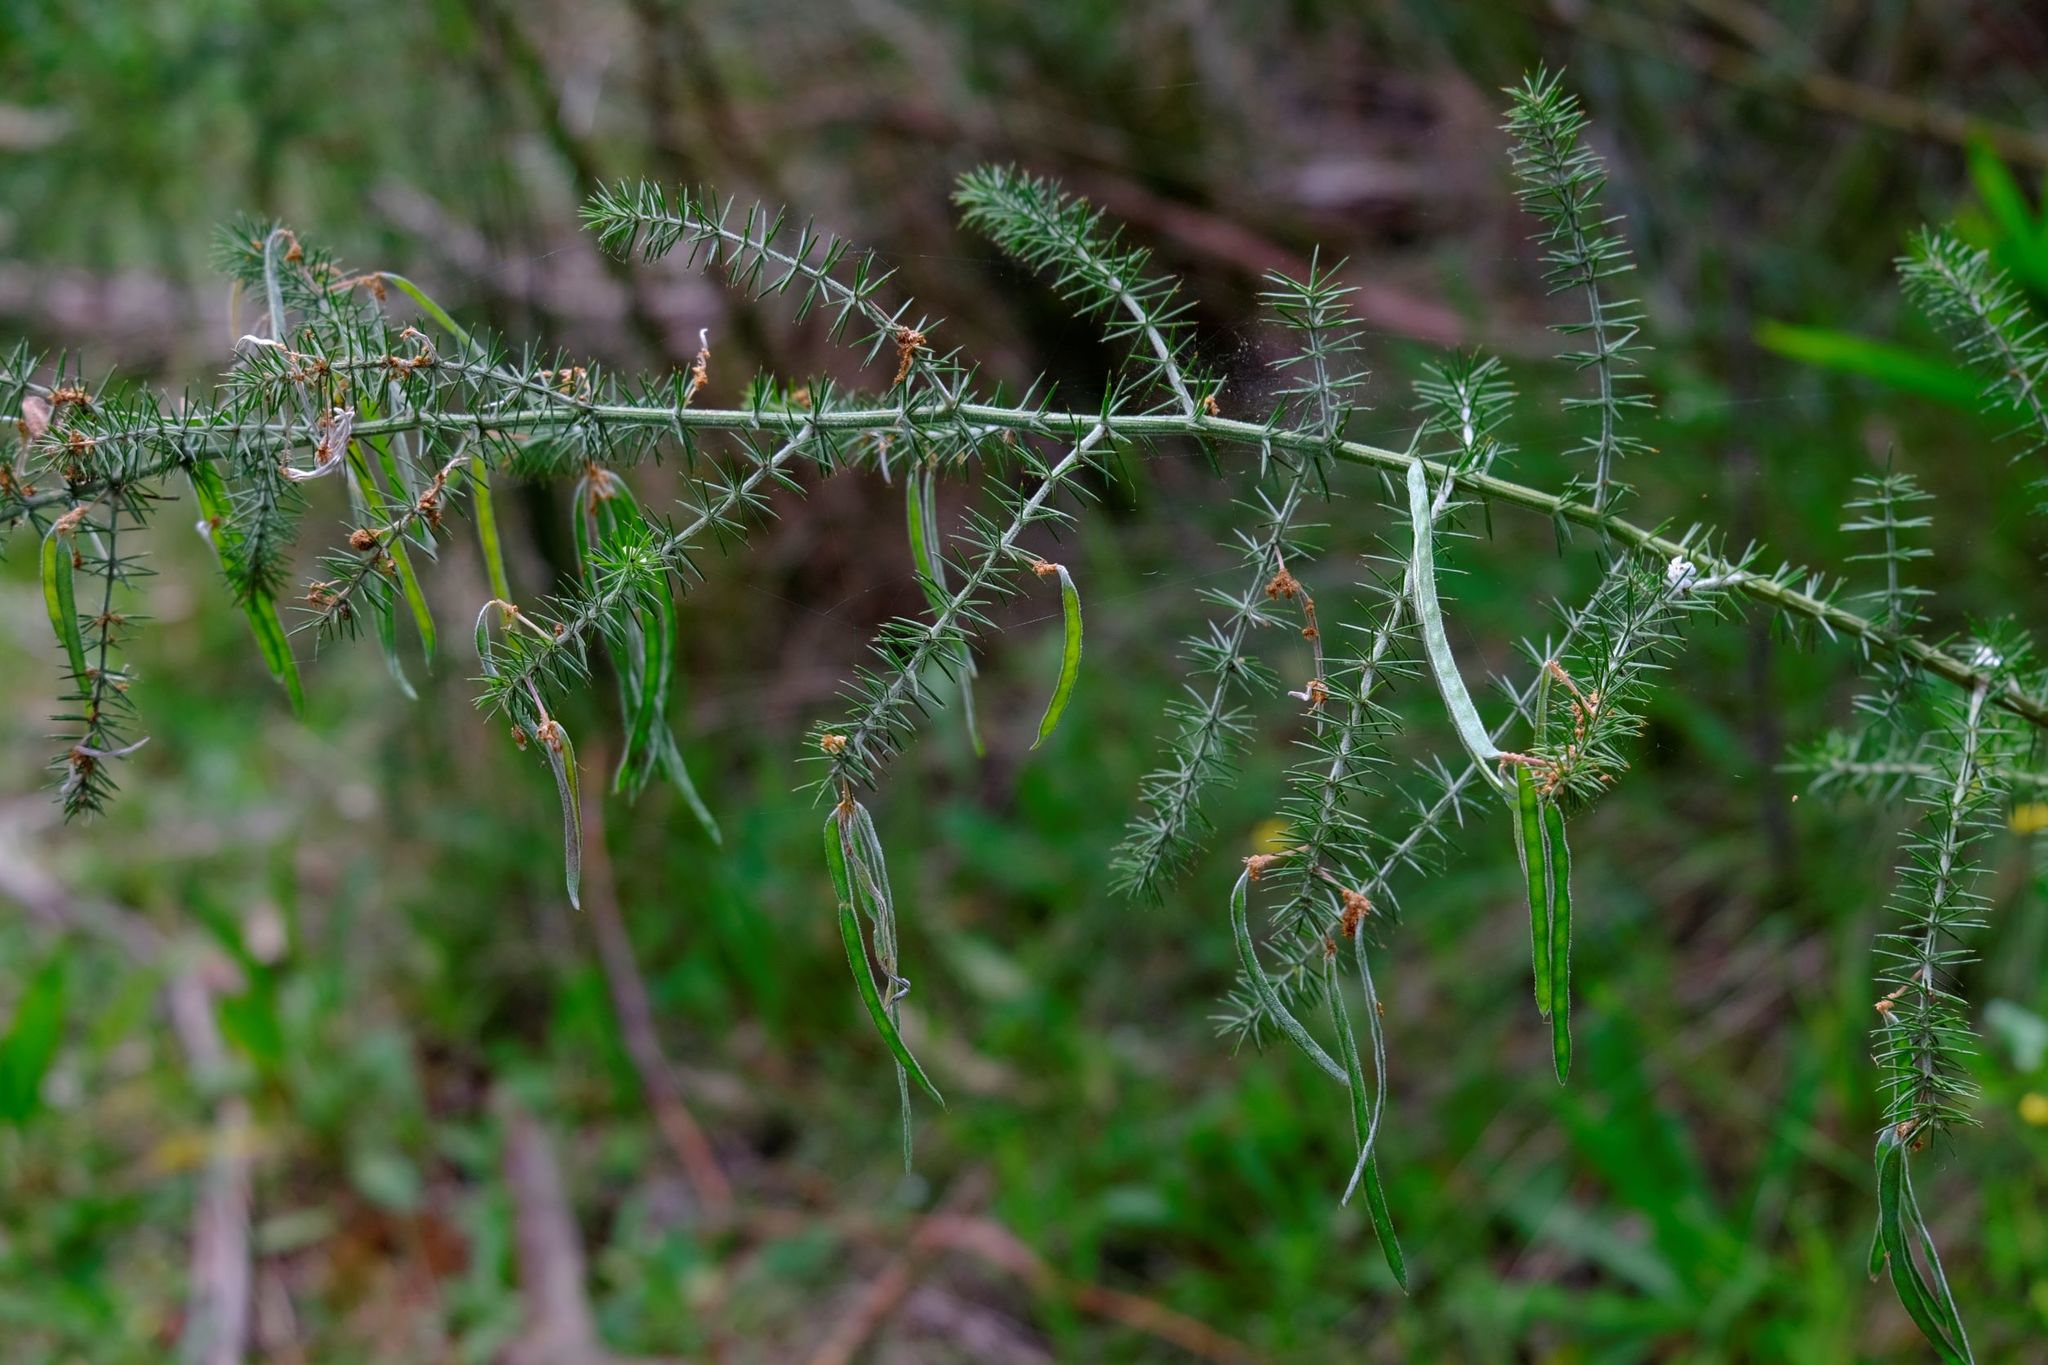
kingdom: Plantae
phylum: Tracheophyta
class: Magnoliopsida
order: Fabales
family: Fabaceae
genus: Acacia
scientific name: Acacia verticillata
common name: Prickly moses
